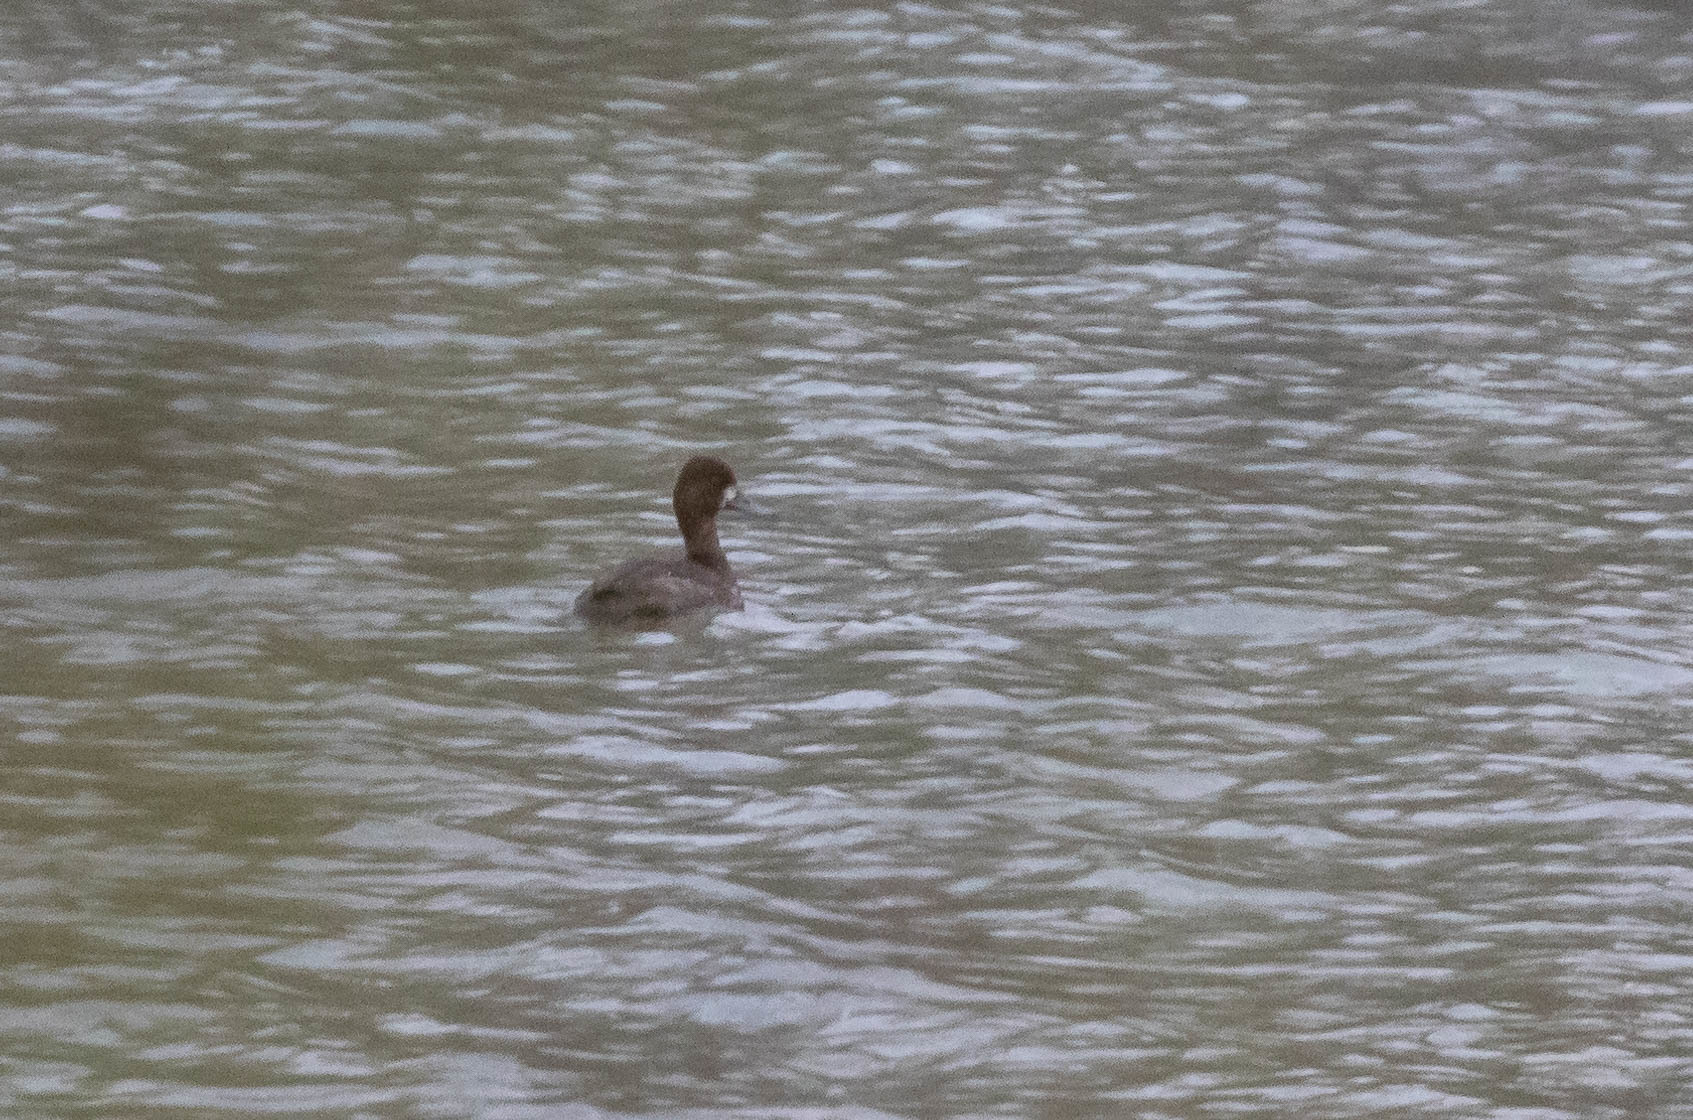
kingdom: Animalia
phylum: Chordata
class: Aves
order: Anseriformes
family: Anatidae
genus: Aythya
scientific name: Aythya affinis
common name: Lesser scaup
